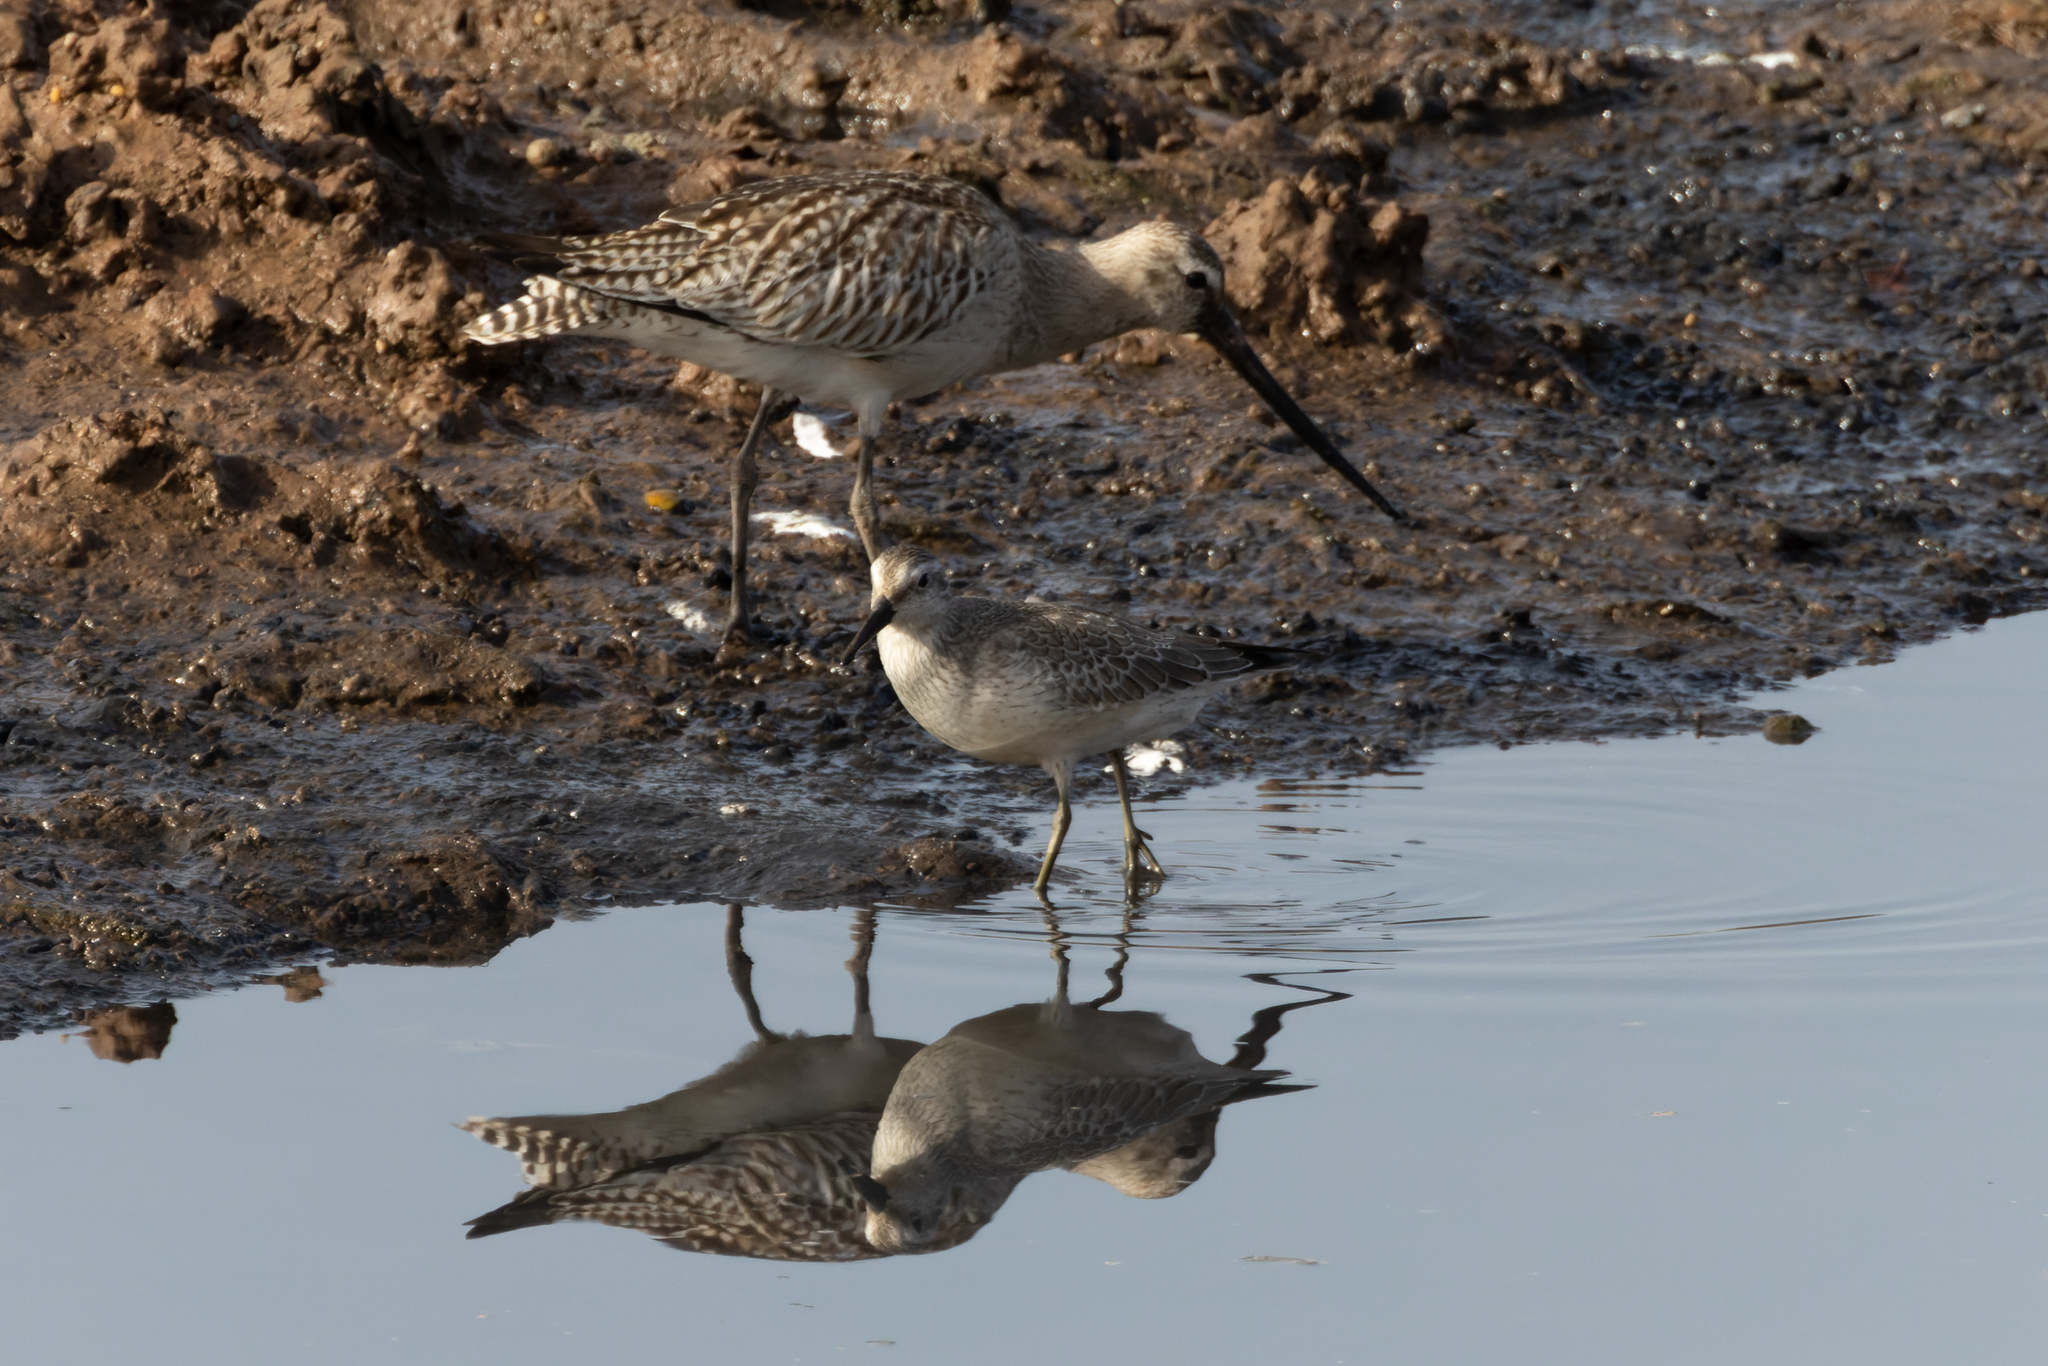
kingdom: Animalia
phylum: Chordata
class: Aves
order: Charadriiformes
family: Scolopacidae
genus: Calidris
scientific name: Calidris canutus
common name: Red knot
